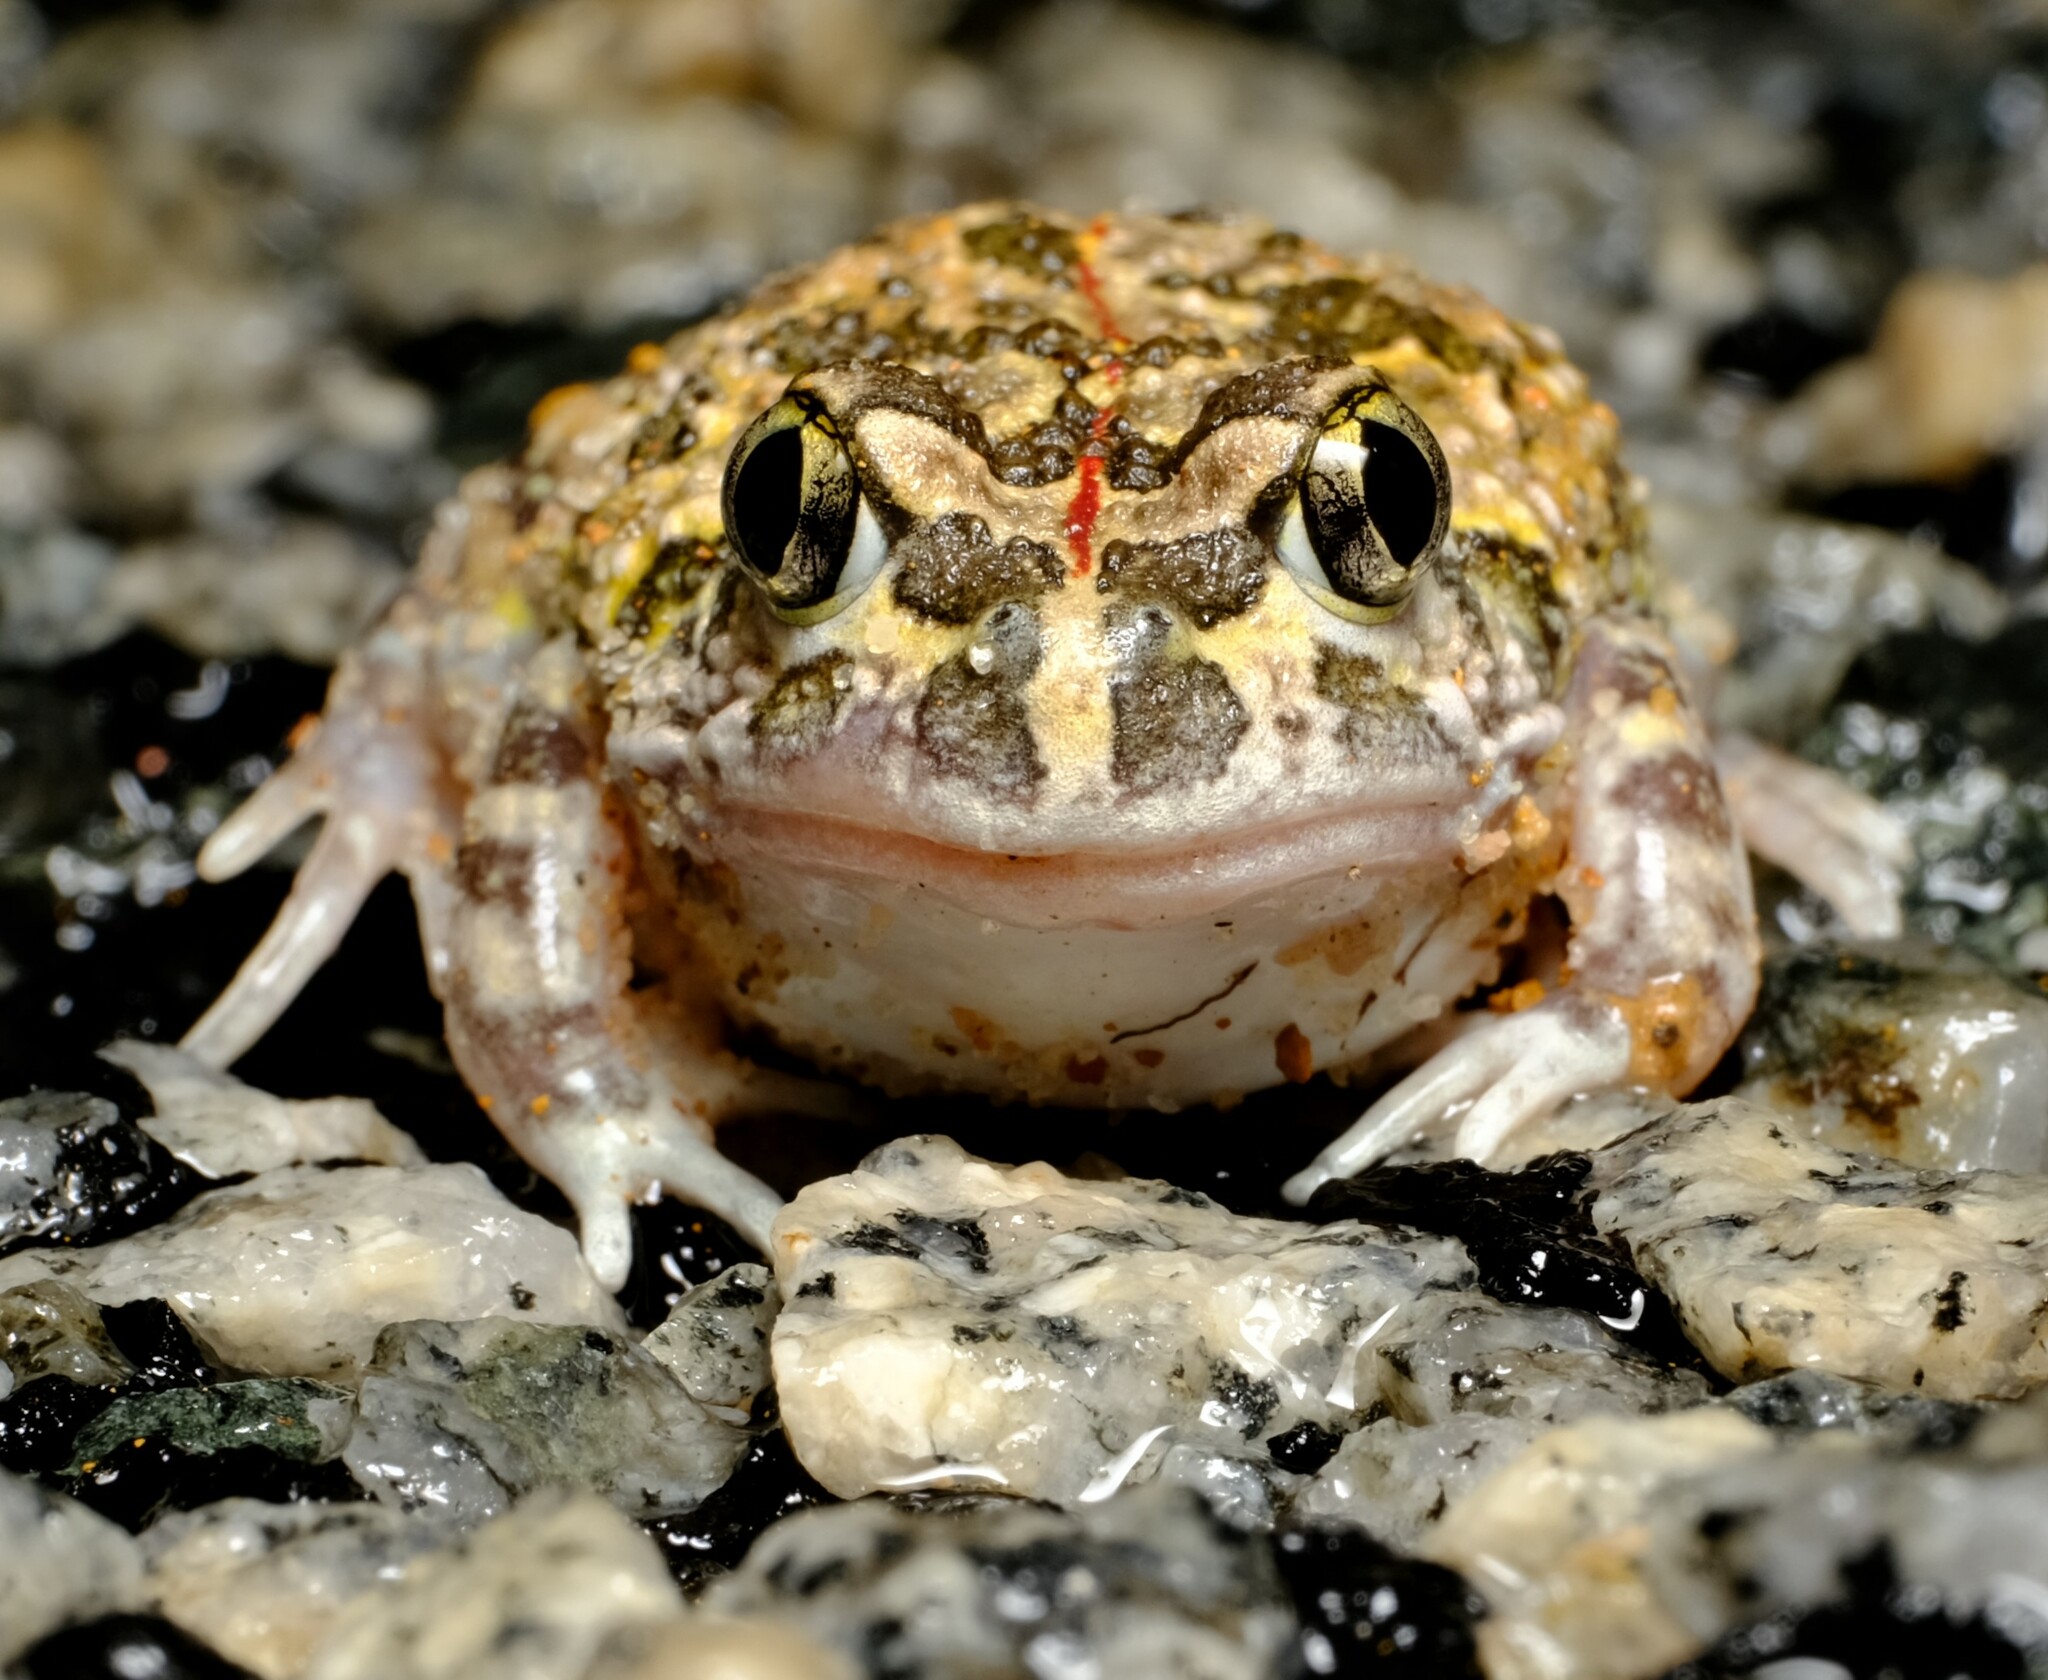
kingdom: Animalia
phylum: Chordata
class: Amphibia
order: Anura
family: Limnodynastidae
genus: Neobatrachus
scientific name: Neobatrachus pelobatoides
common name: Humming frog
